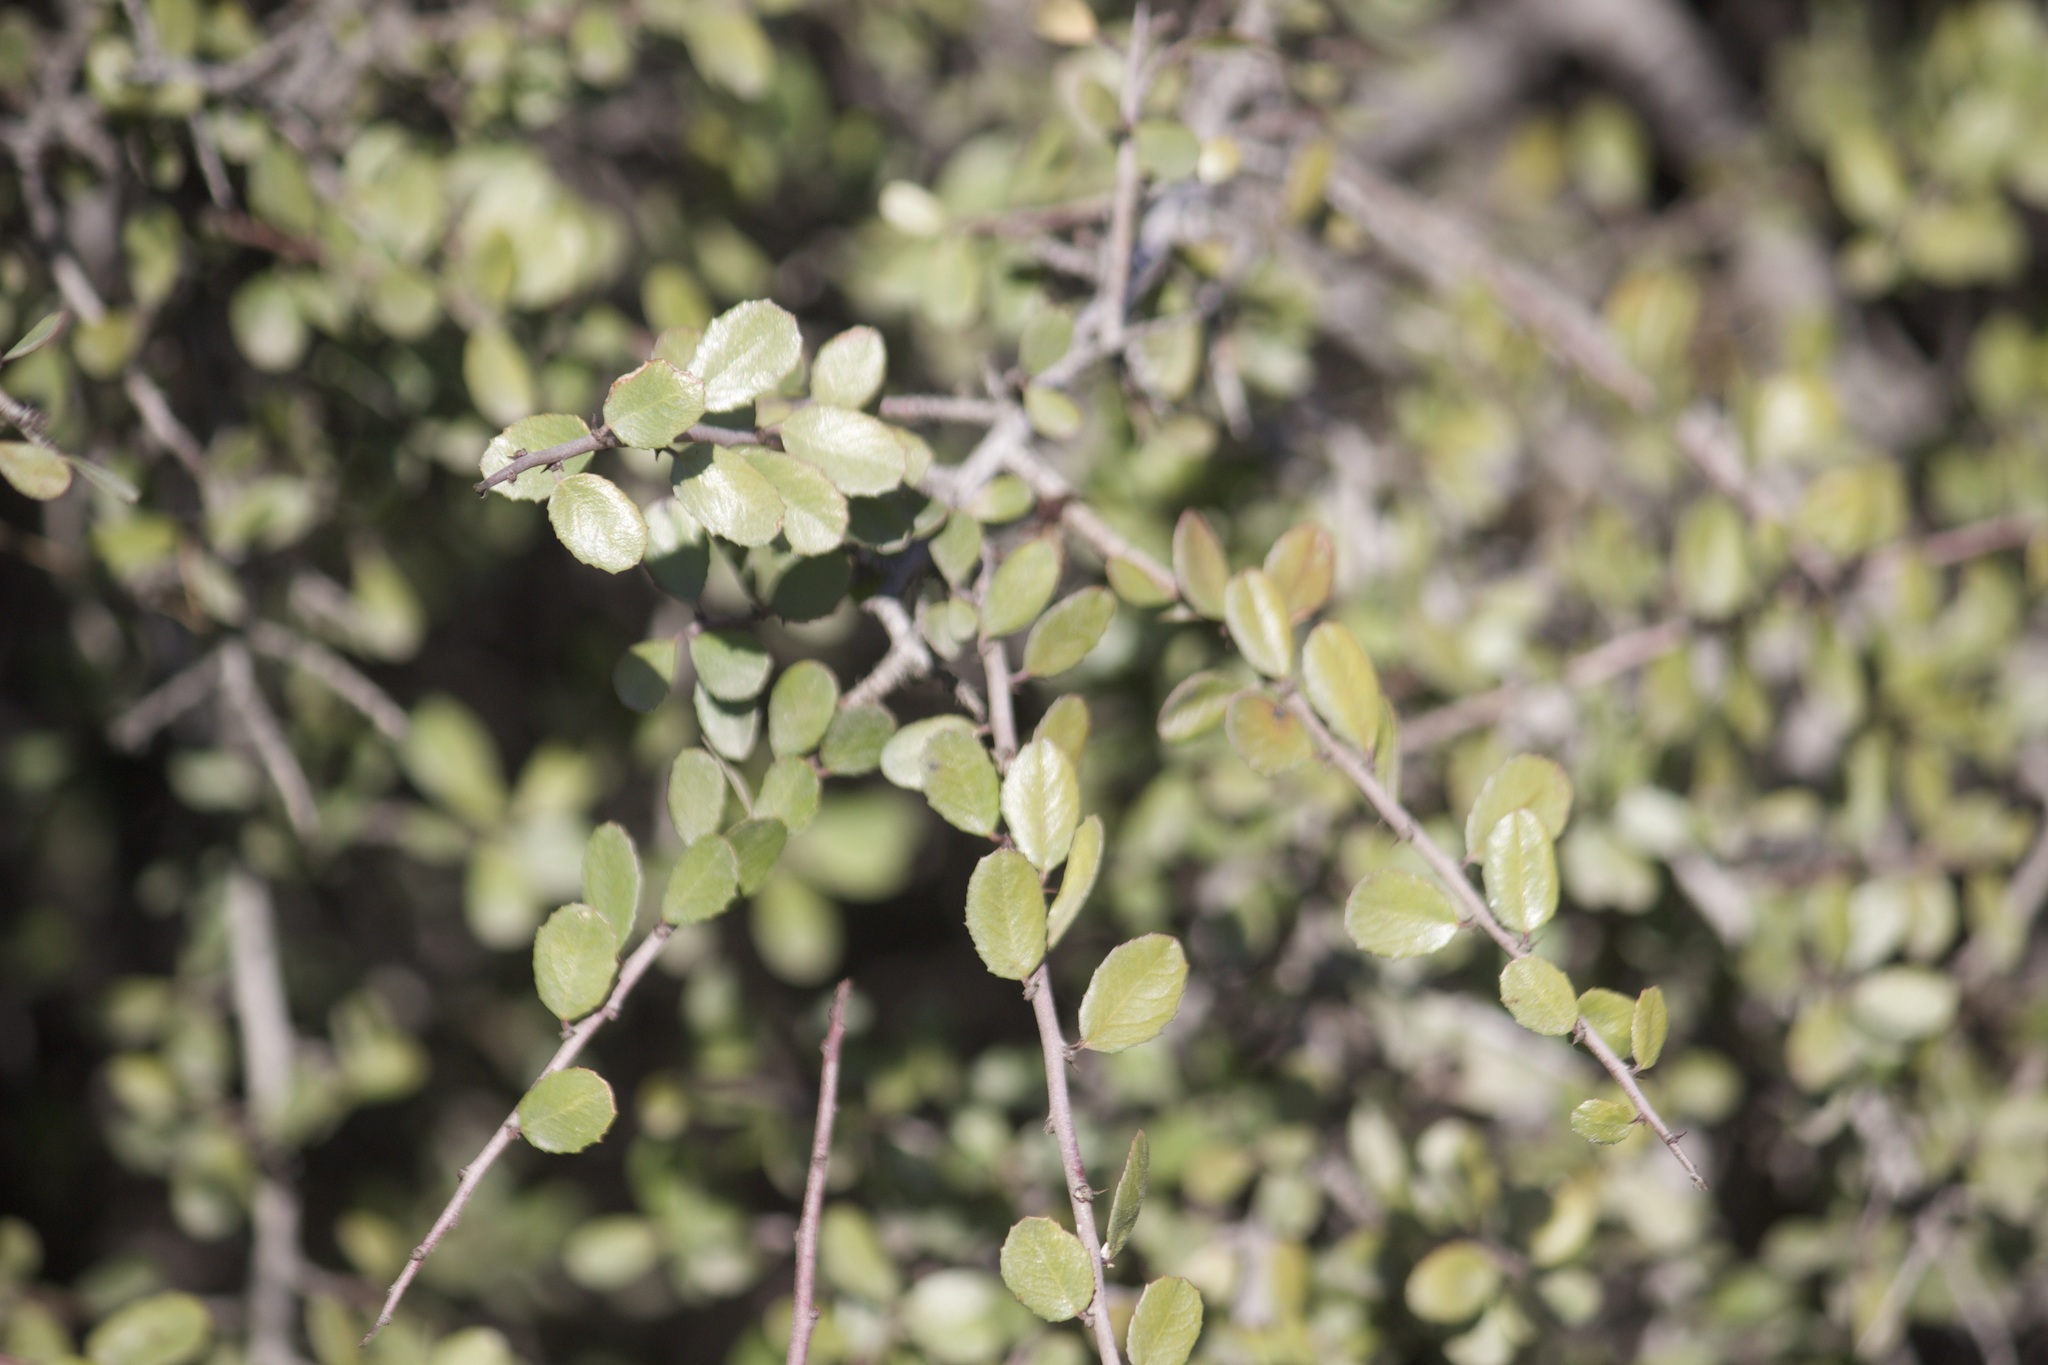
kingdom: Plantae
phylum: Tracheophyta
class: Magnoliopsida
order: Rosales
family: Rhamnaceae
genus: Endotropis
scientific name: Endotropis crocea
